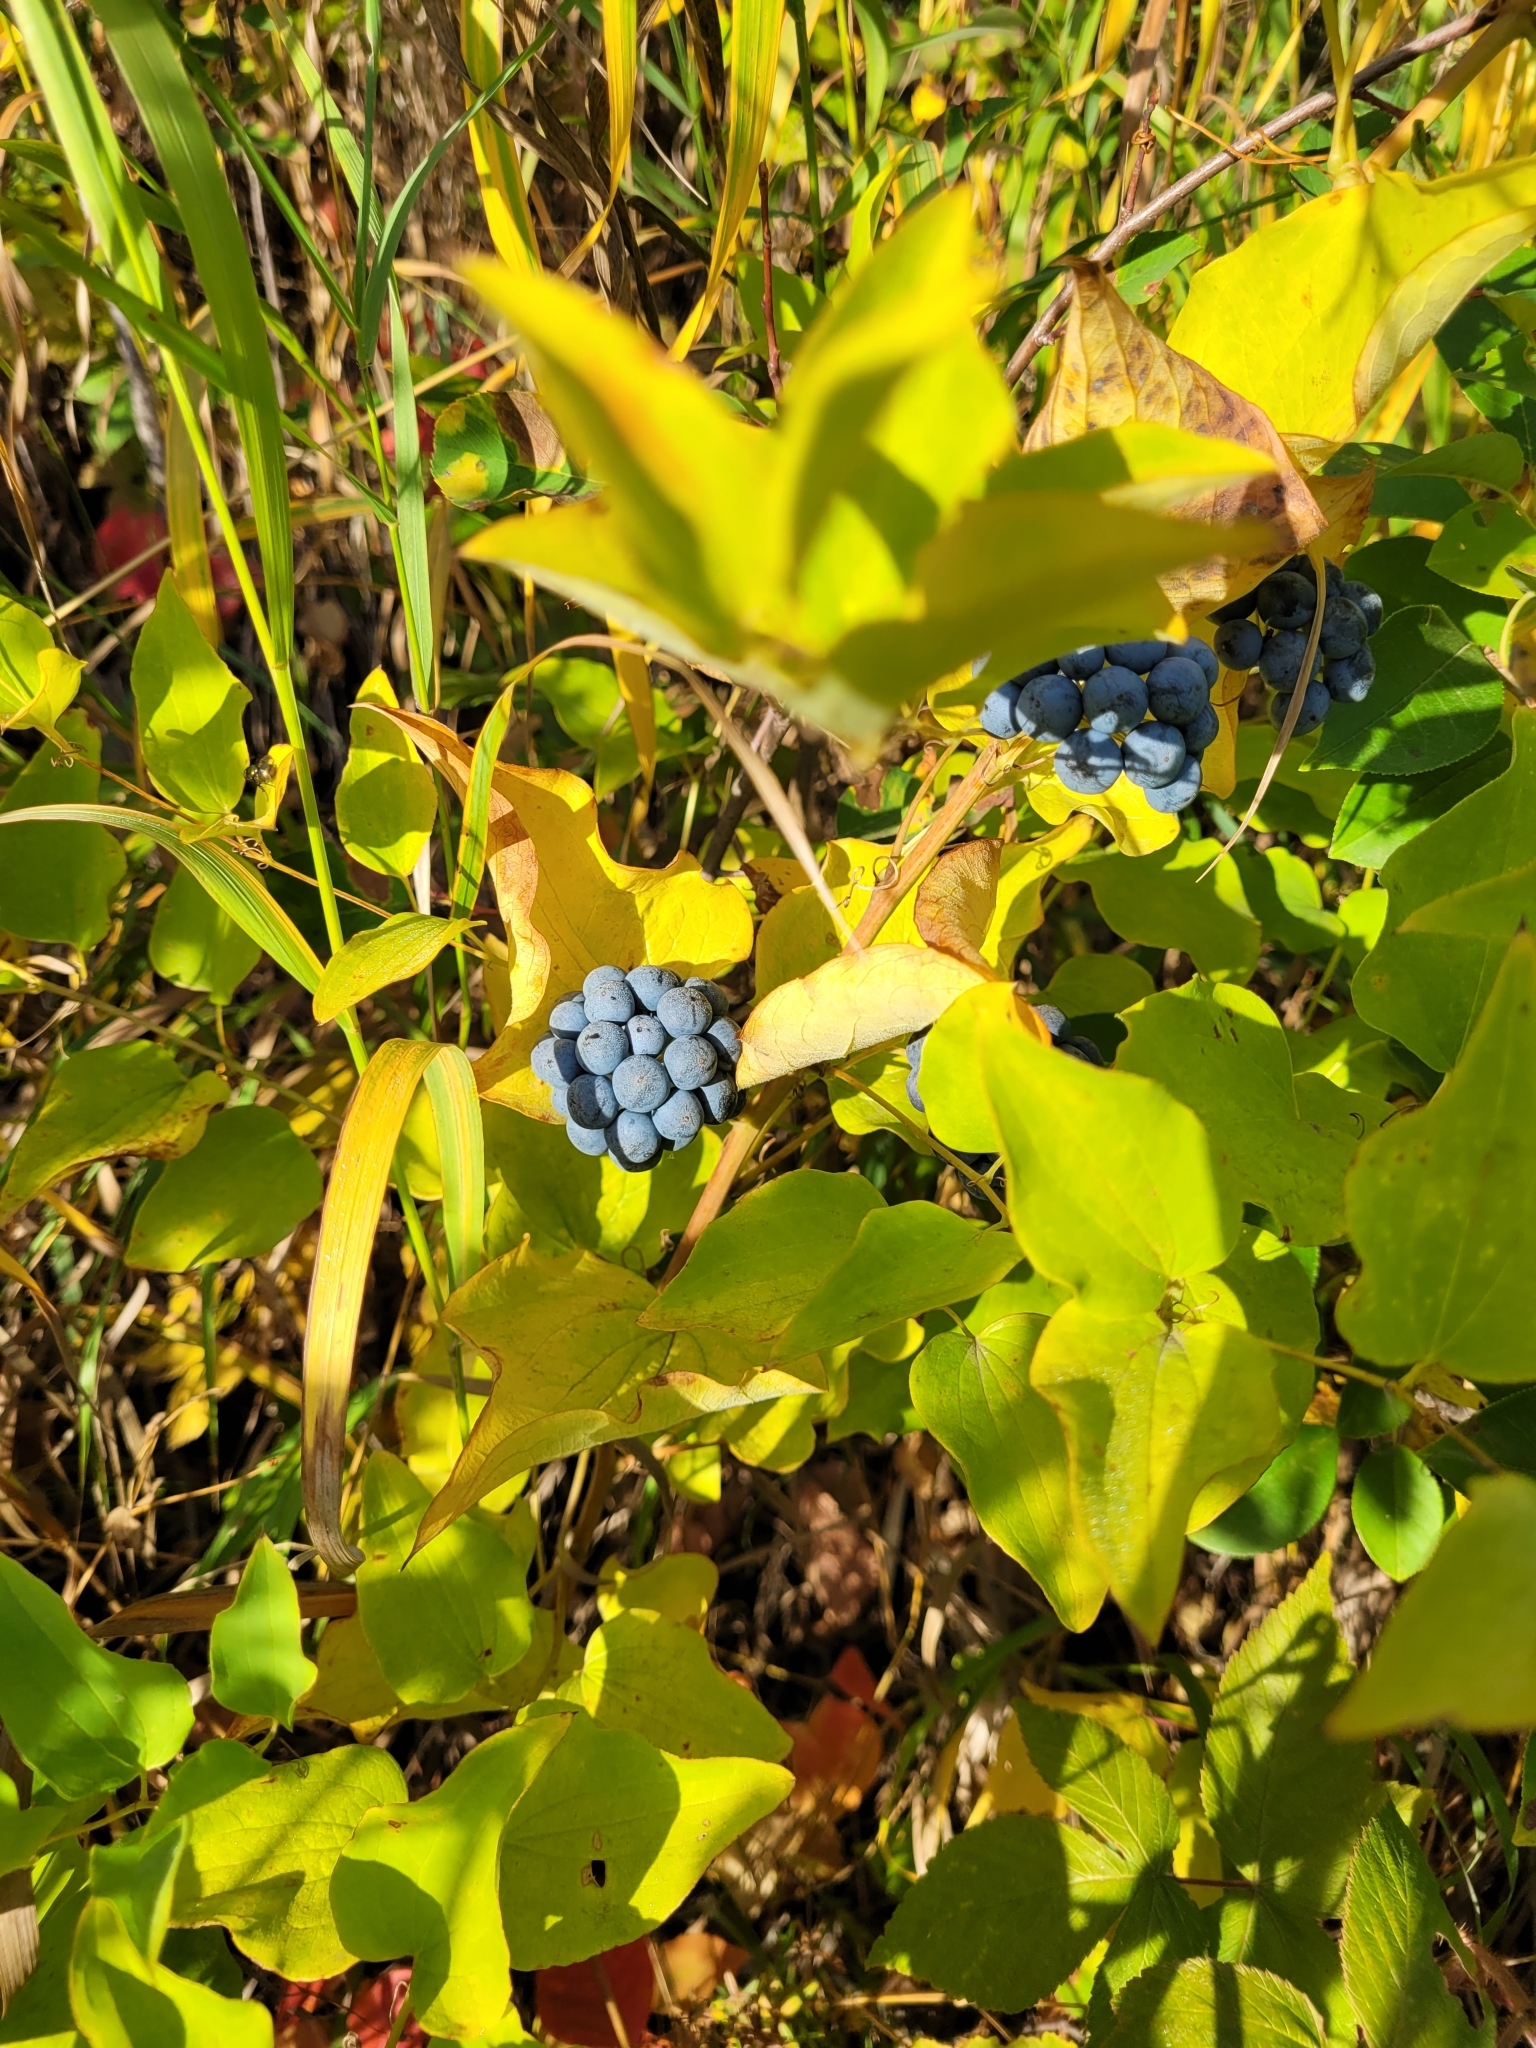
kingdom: Plantae
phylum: Tracheophyta
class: Liliopsida
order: Liliales
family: Smilacaceae
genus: Smilax
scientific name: Smilax lasioneura
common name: Blue ridge carrionflower
